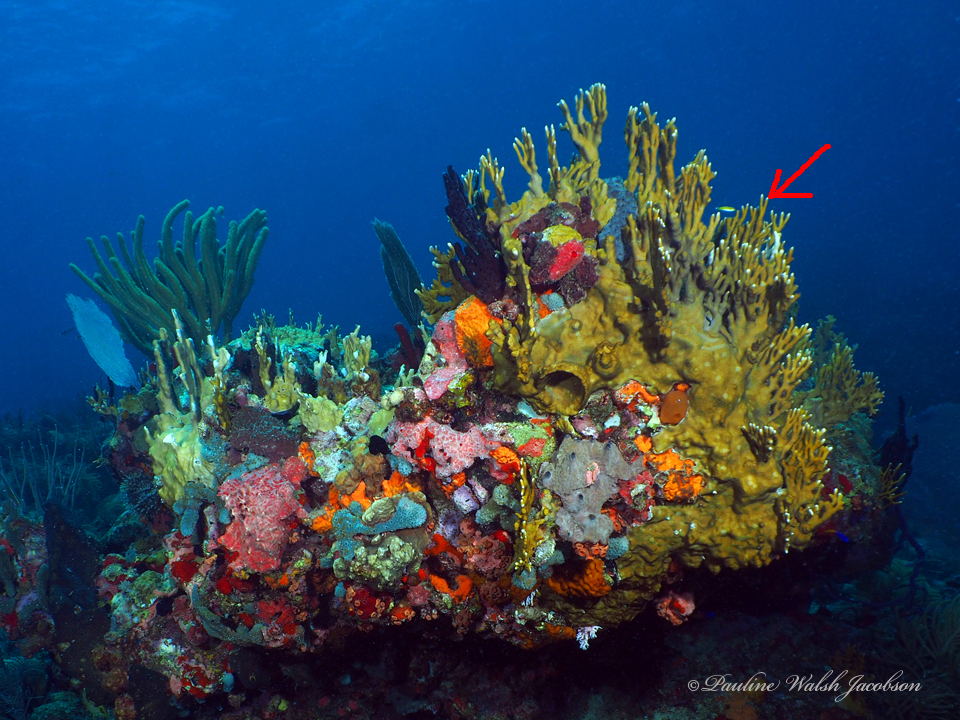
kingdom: Animalia
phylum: Cnidaria
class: Hydrozoa
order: Anthoathecata
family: Milleporidae
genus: Millepora
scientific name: Millepora alcicornis
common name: Branching fire coral
